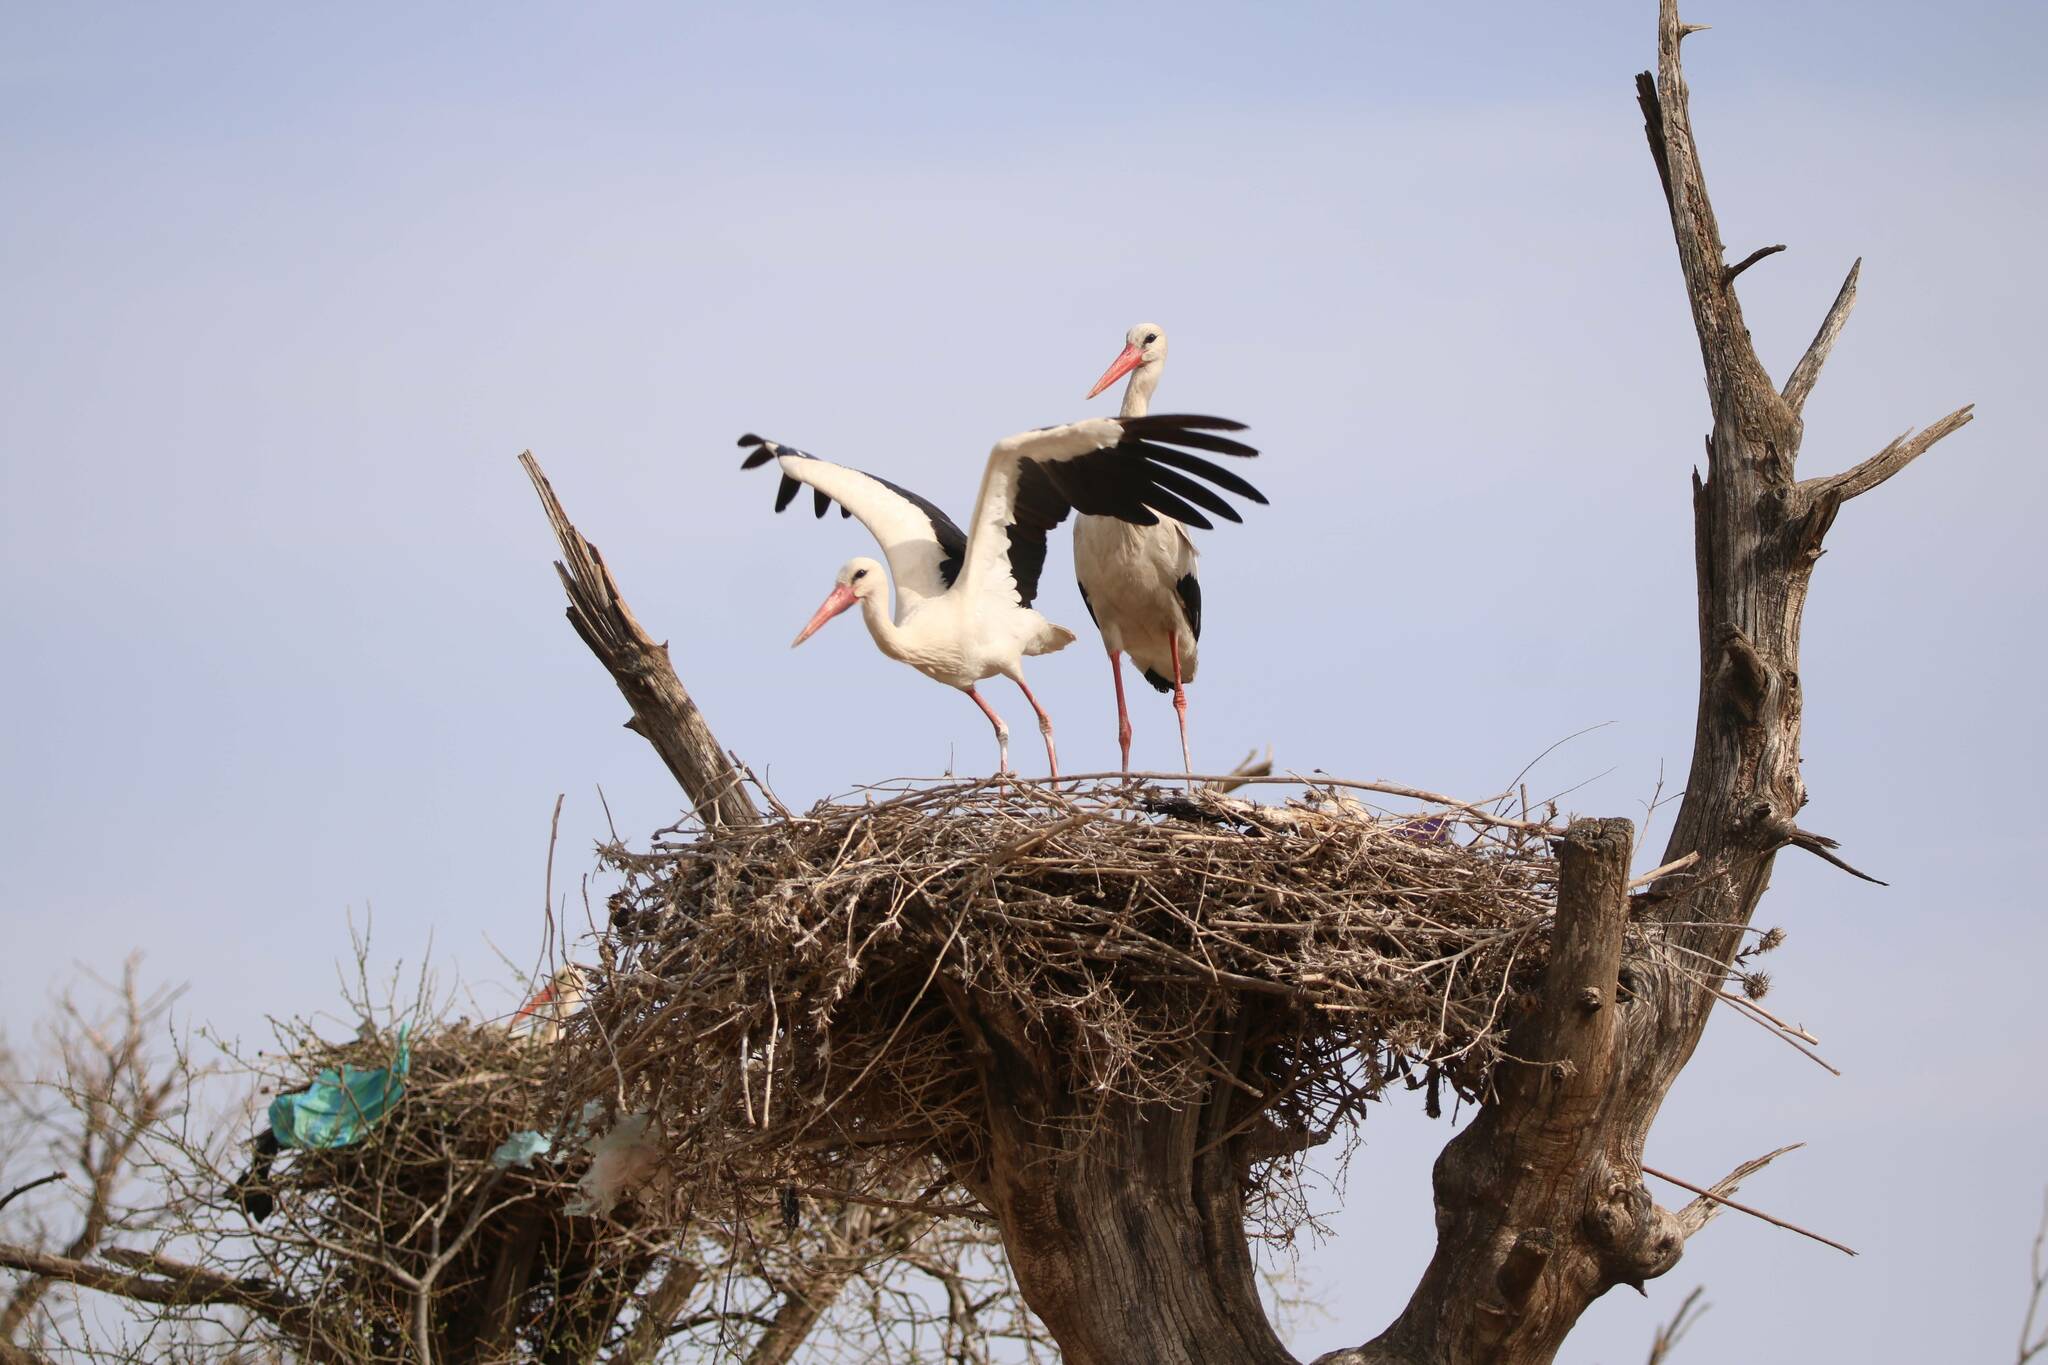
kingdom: Animalia
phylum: Chordata
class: Aves
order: Ciconiiformes
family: Ciconiidae
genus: Ciconia
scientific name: Ciconia ciconia
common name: White stork
